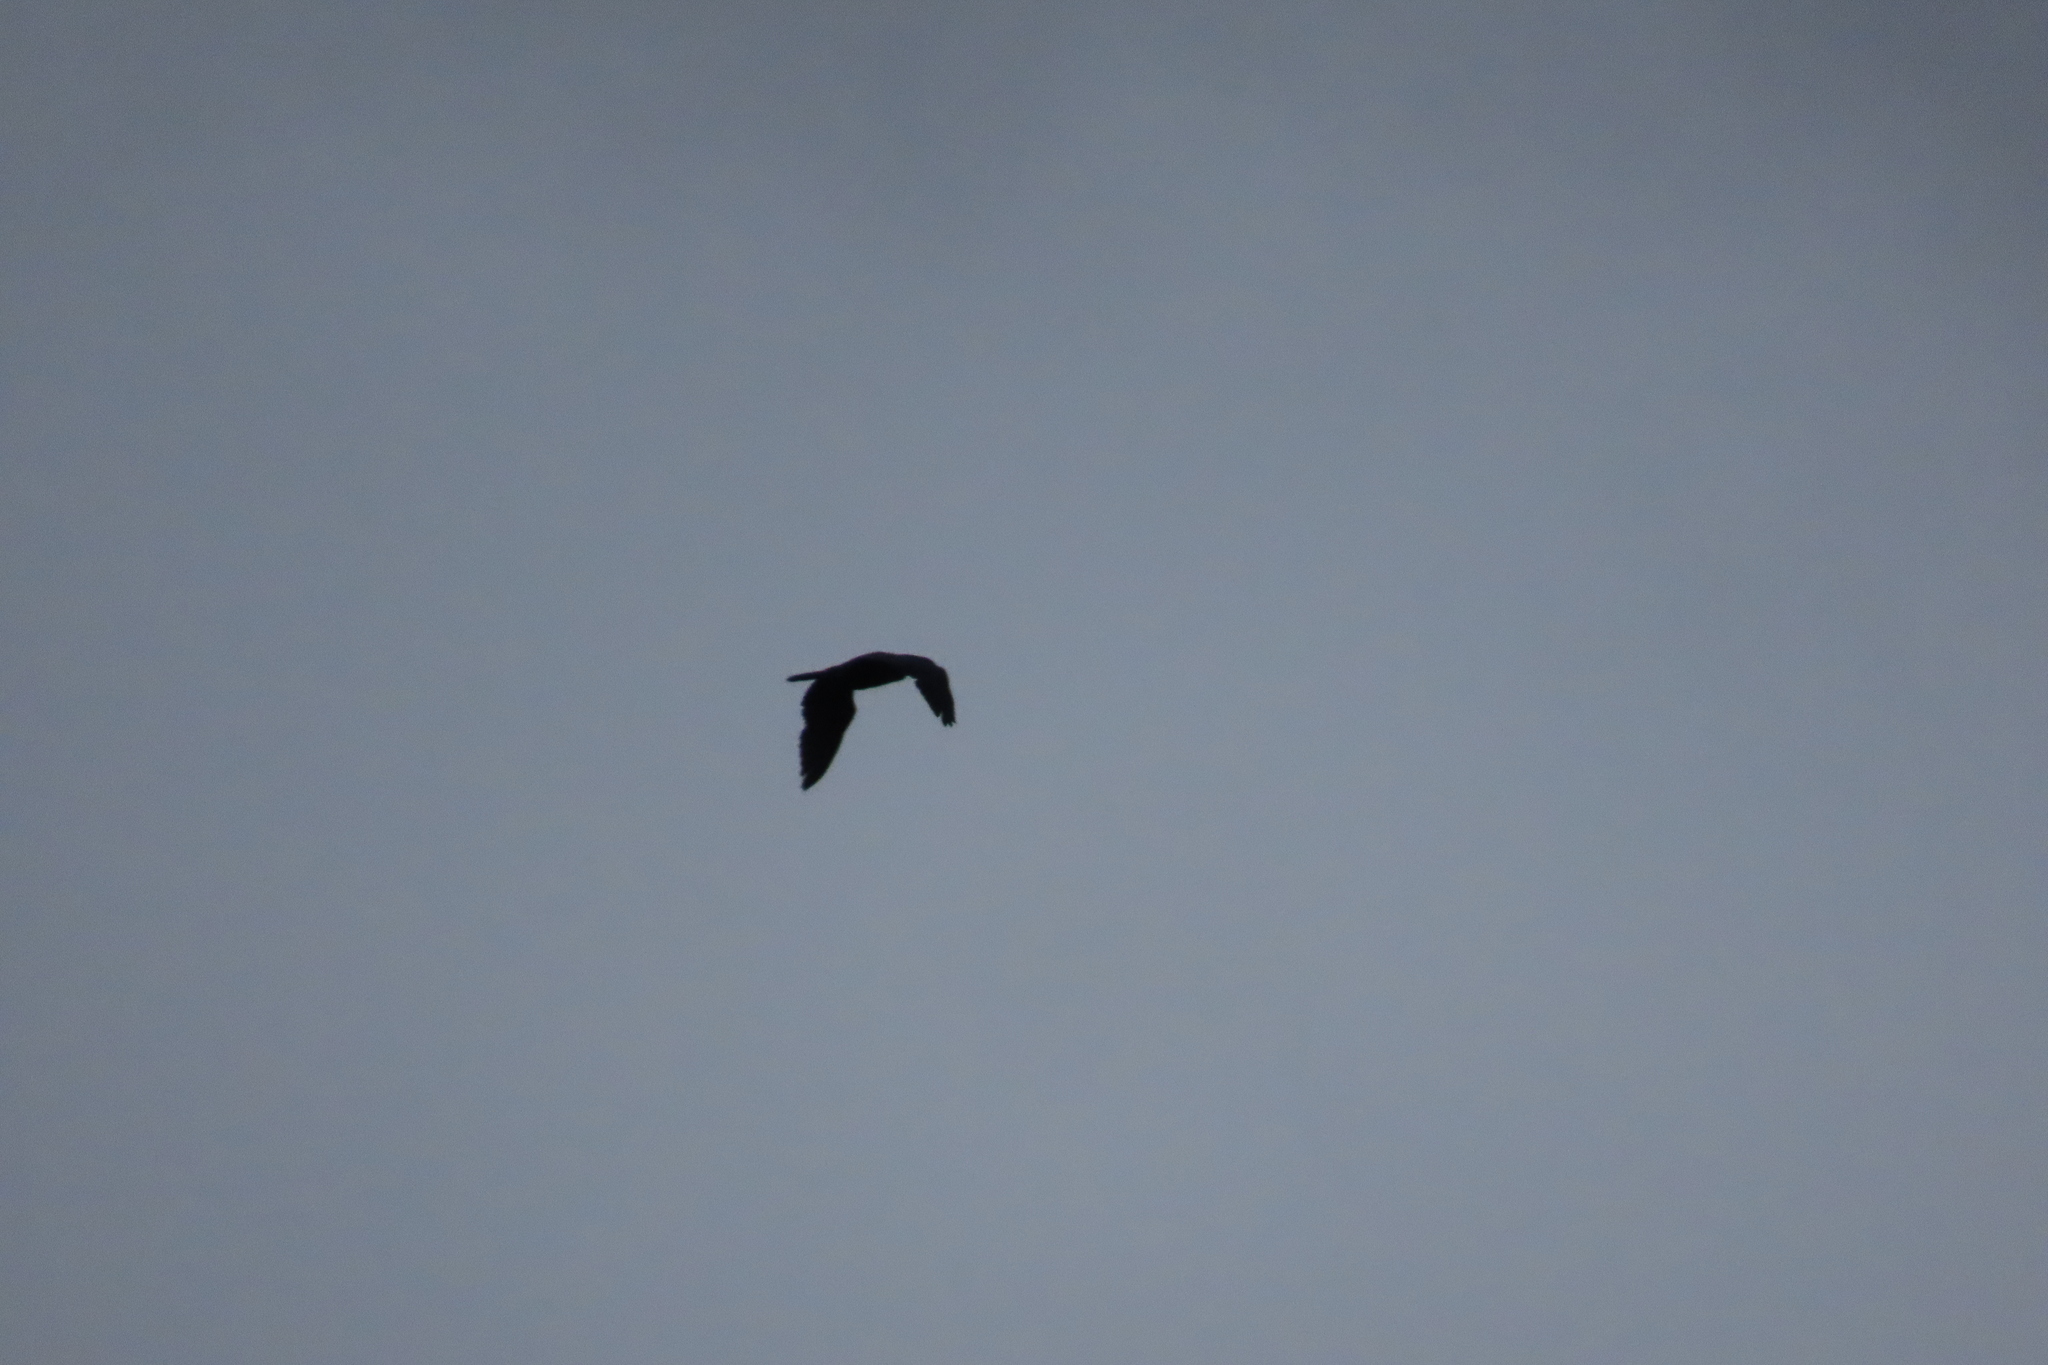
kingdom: Animalia
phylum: Chordata
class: Aves
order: Accipitriformes
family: Accipitridae
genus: Haliastur
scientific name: Haliastur indus
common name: Brahminy kite
